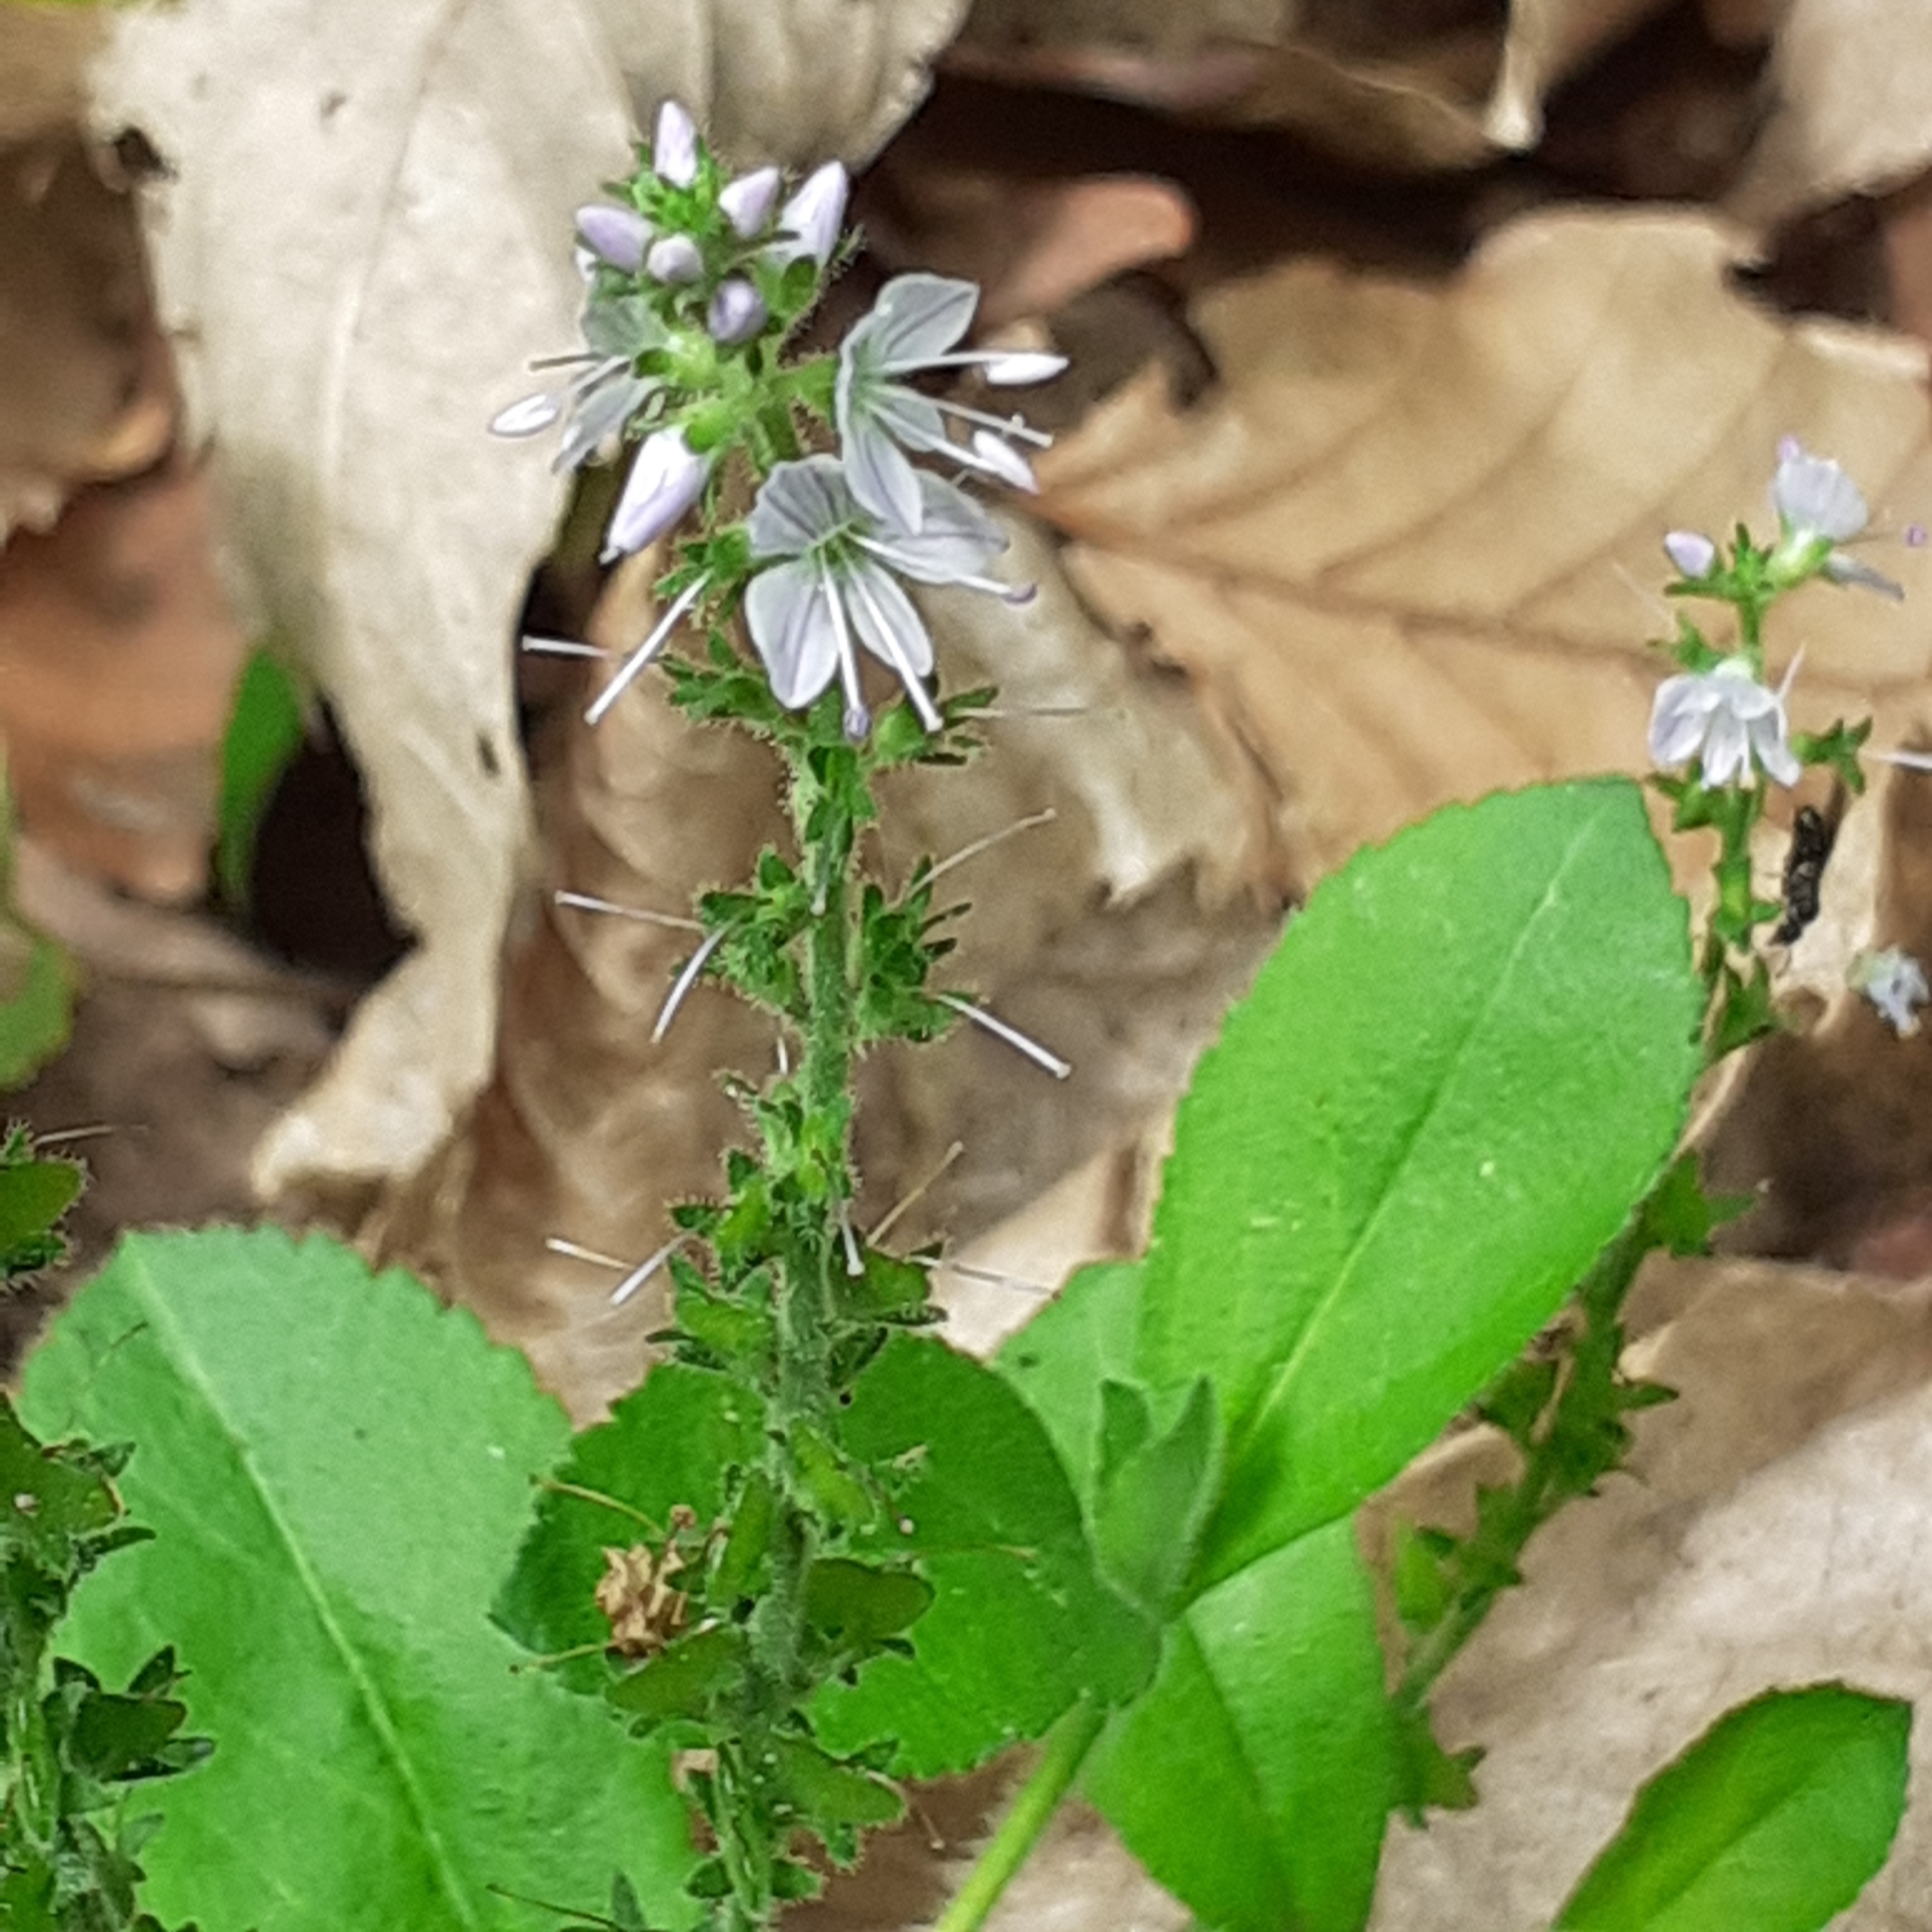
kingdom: Plantae
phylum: Tracheophyta
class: Magnoliopsida
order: Lamiales
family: Plantaginaceae
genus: Veronica
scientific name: Veronica officinalis
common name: Common speedwell
